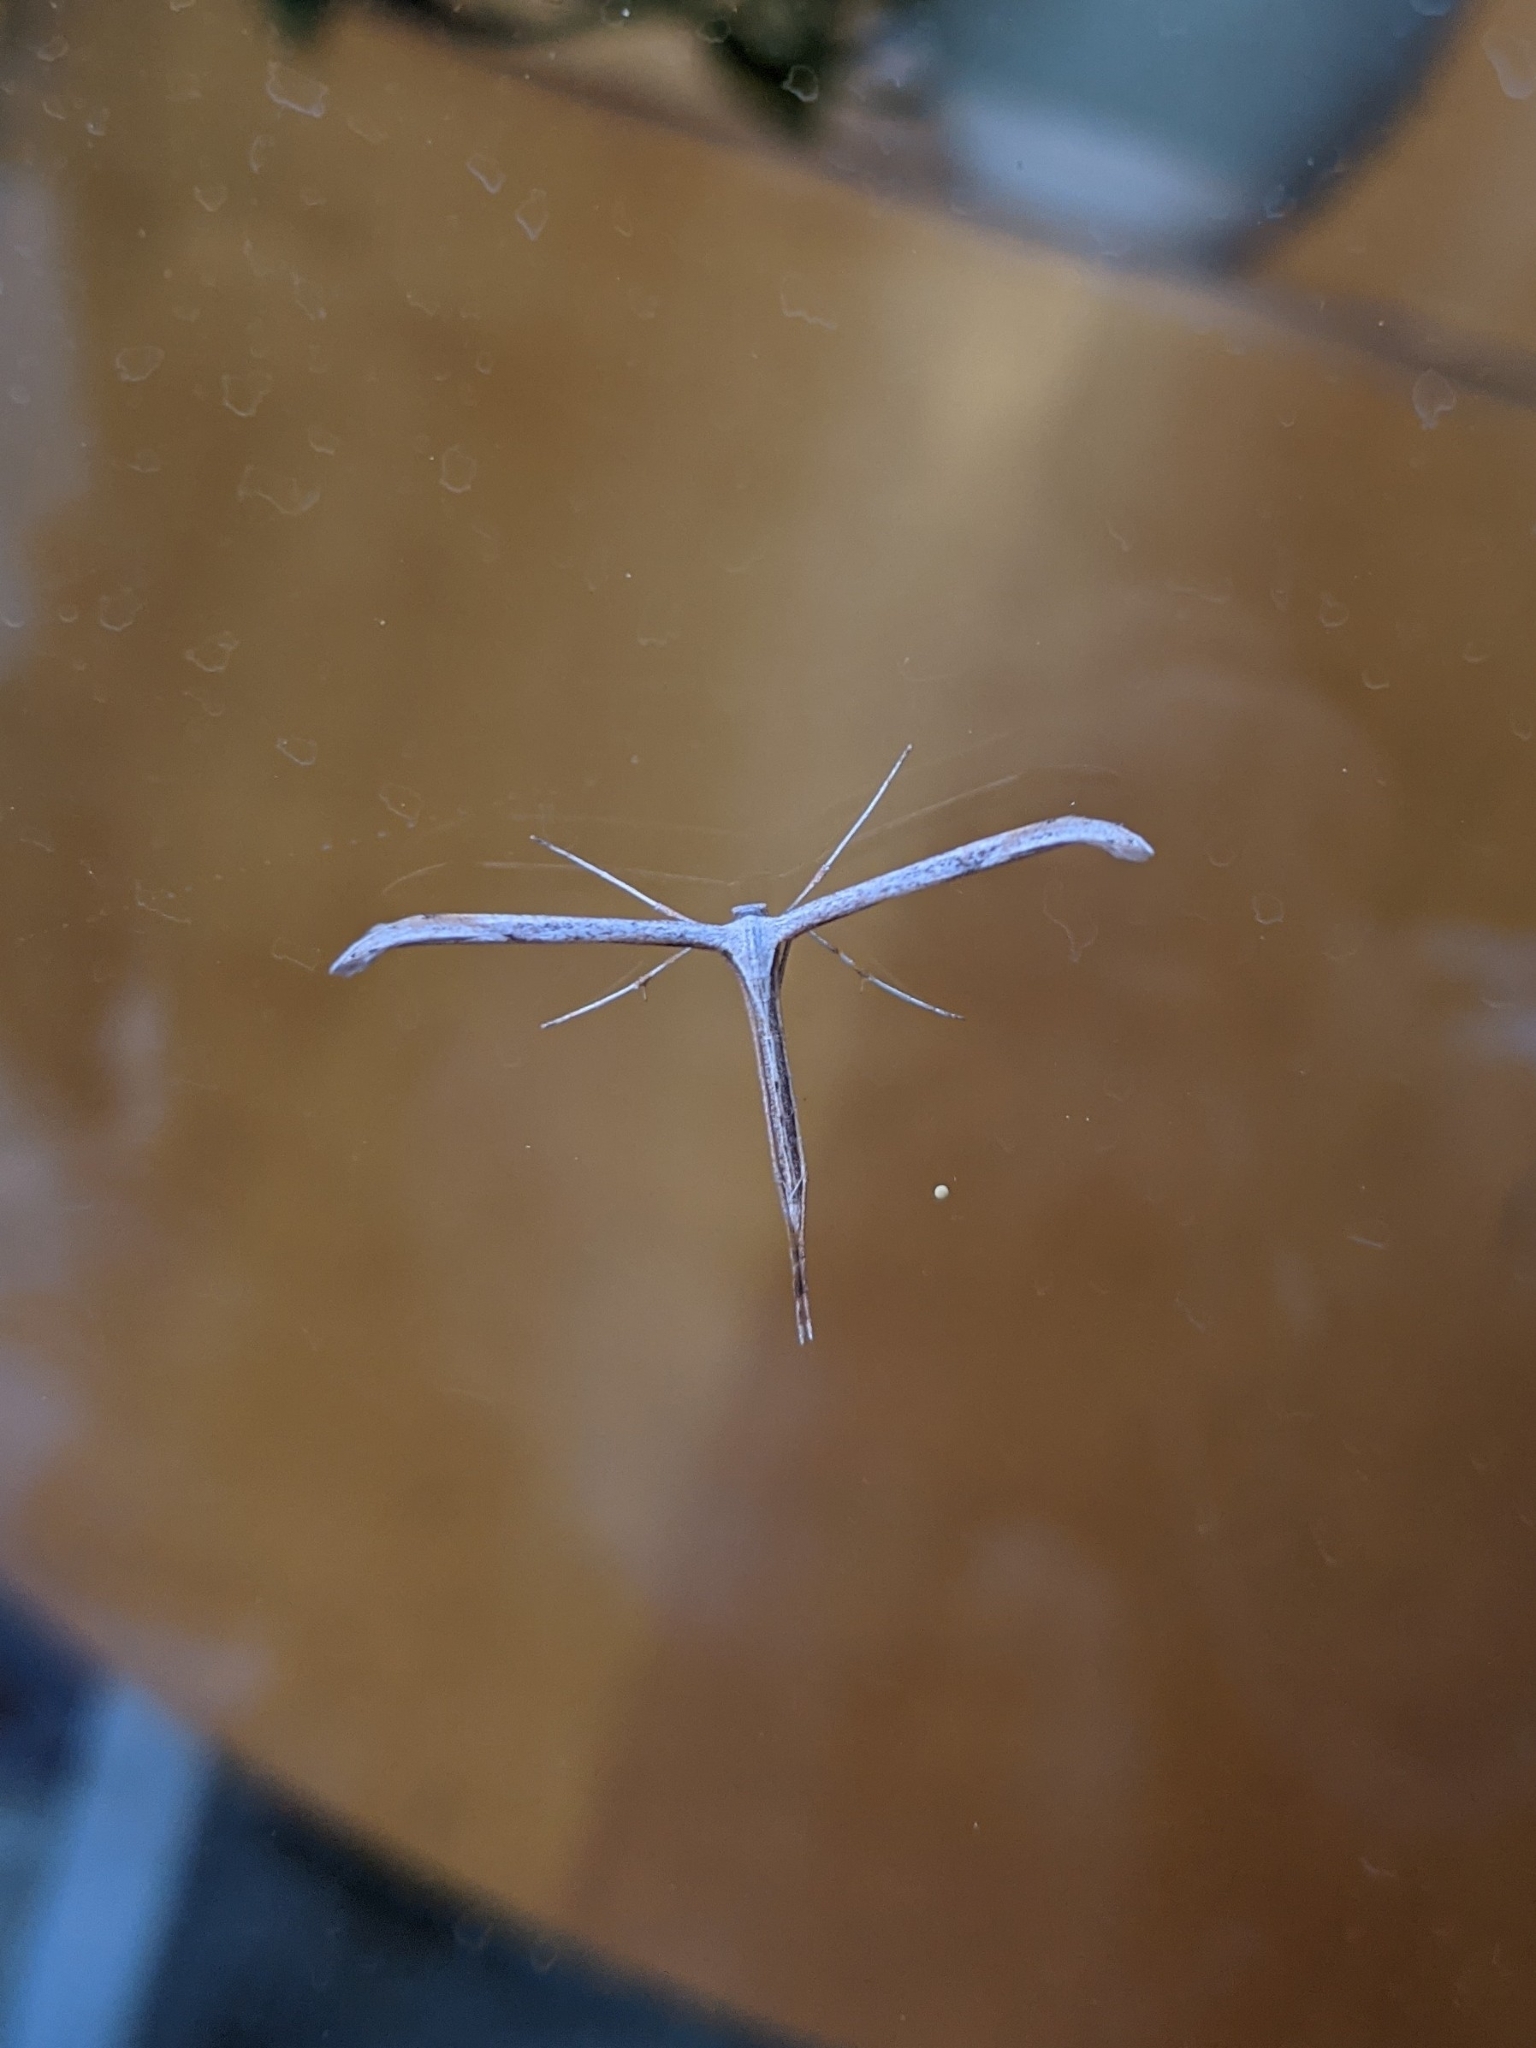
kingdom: Animalia
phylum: Arthropoda
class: Insecta
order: Lepidoptera
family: Pterophoridae
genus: Emmelina
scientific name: Emmelina monodactyla
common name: Common plume
